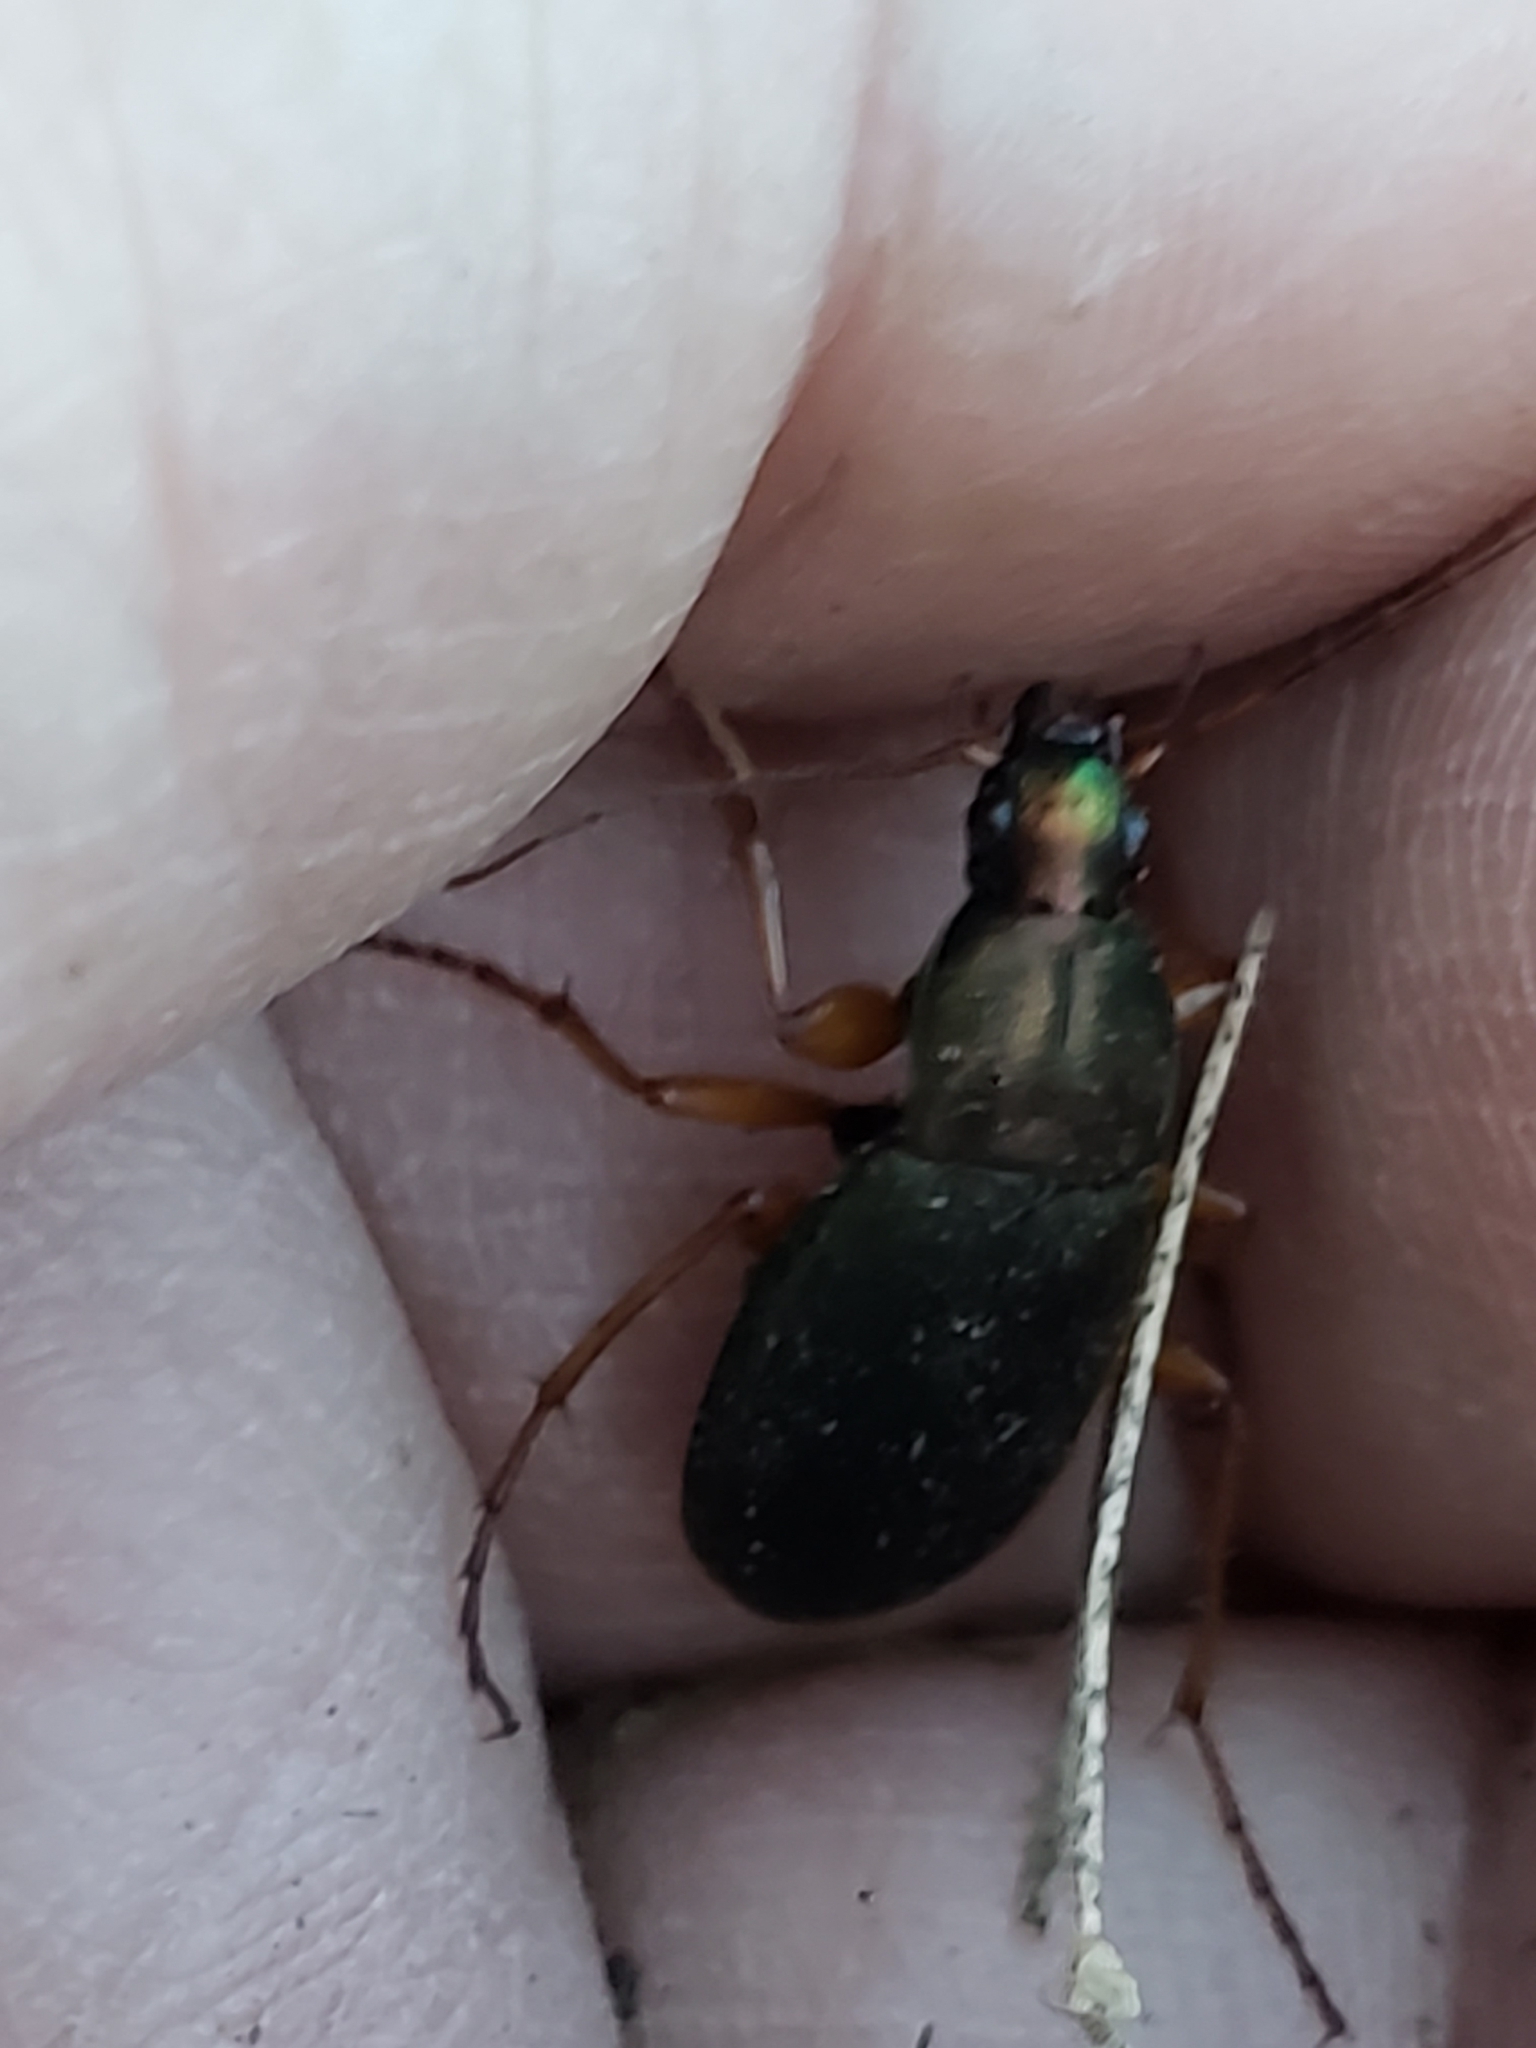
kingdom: Animalia
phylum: Arthropoda
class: Insecta
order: Coleoptera
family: Carabidae
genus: Chlaenius
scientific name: Chlaenius aestivus
